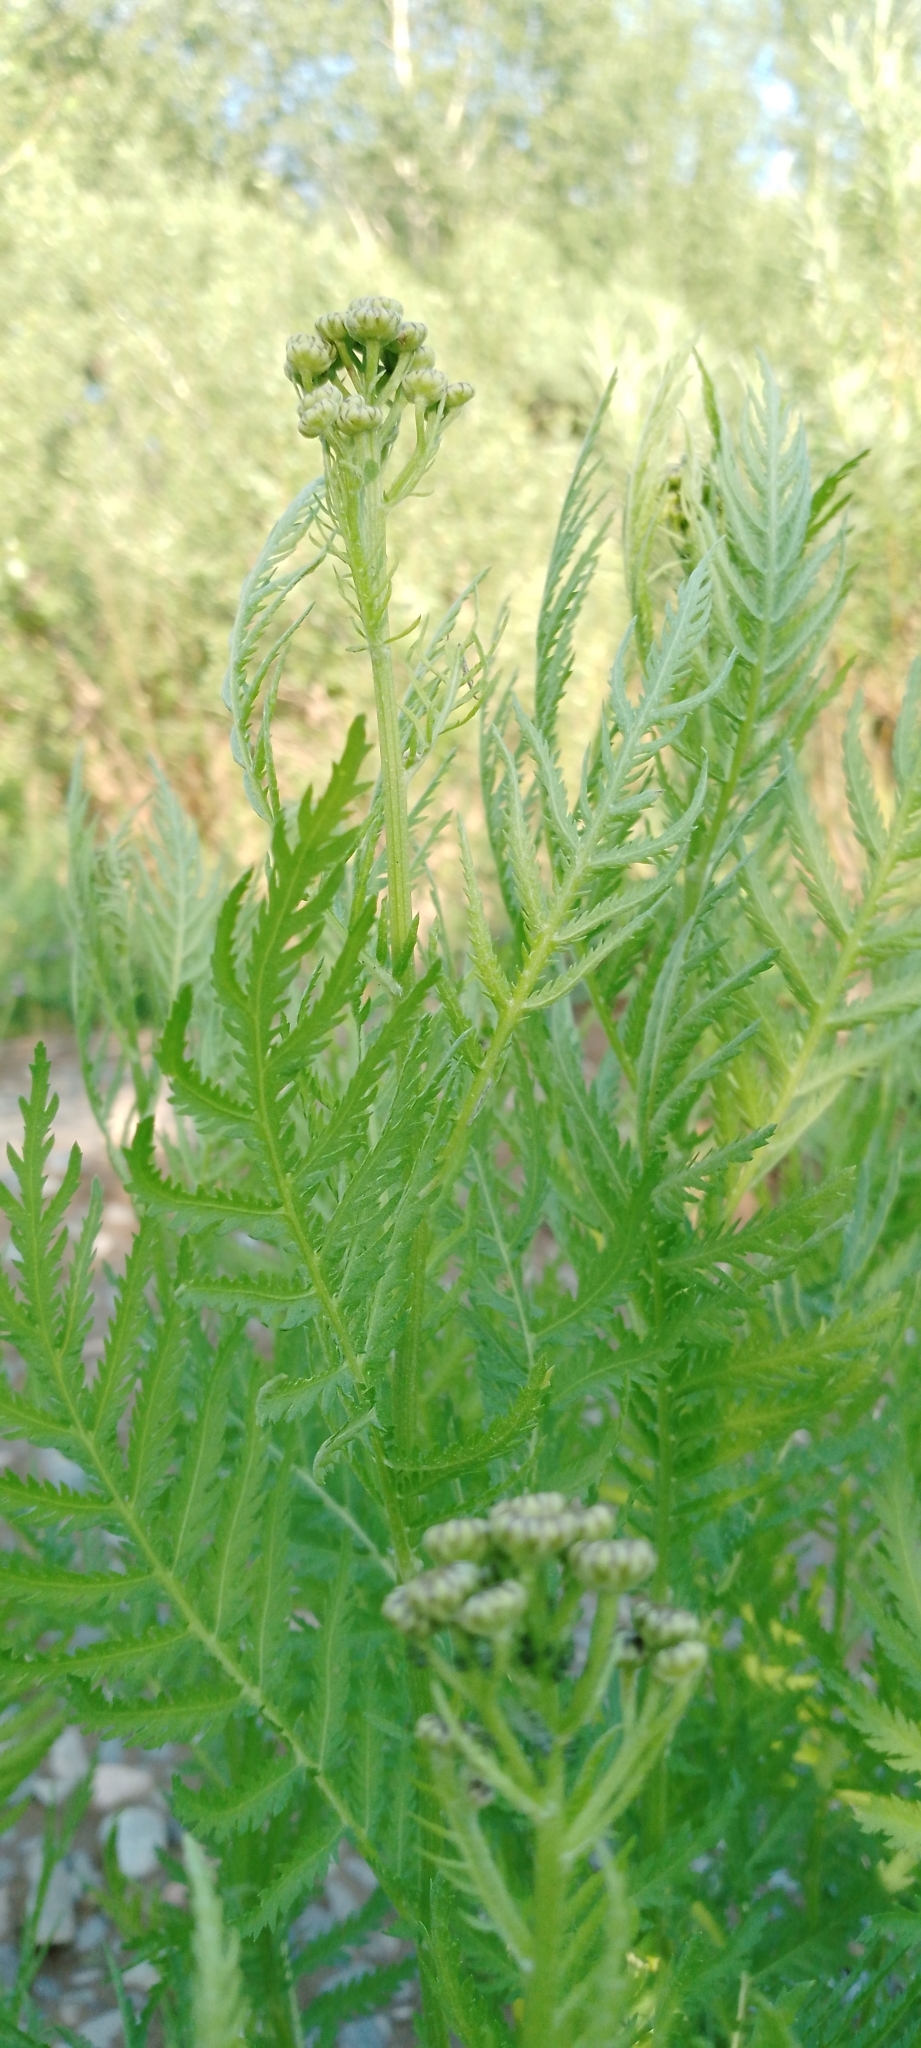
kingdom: Plantae
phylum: Tracheophyta
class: Magnoliopsida
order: Asterales
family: Asteraceae
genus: Tanacetum
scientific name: Tanacetum vulgare
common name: Common tansy
